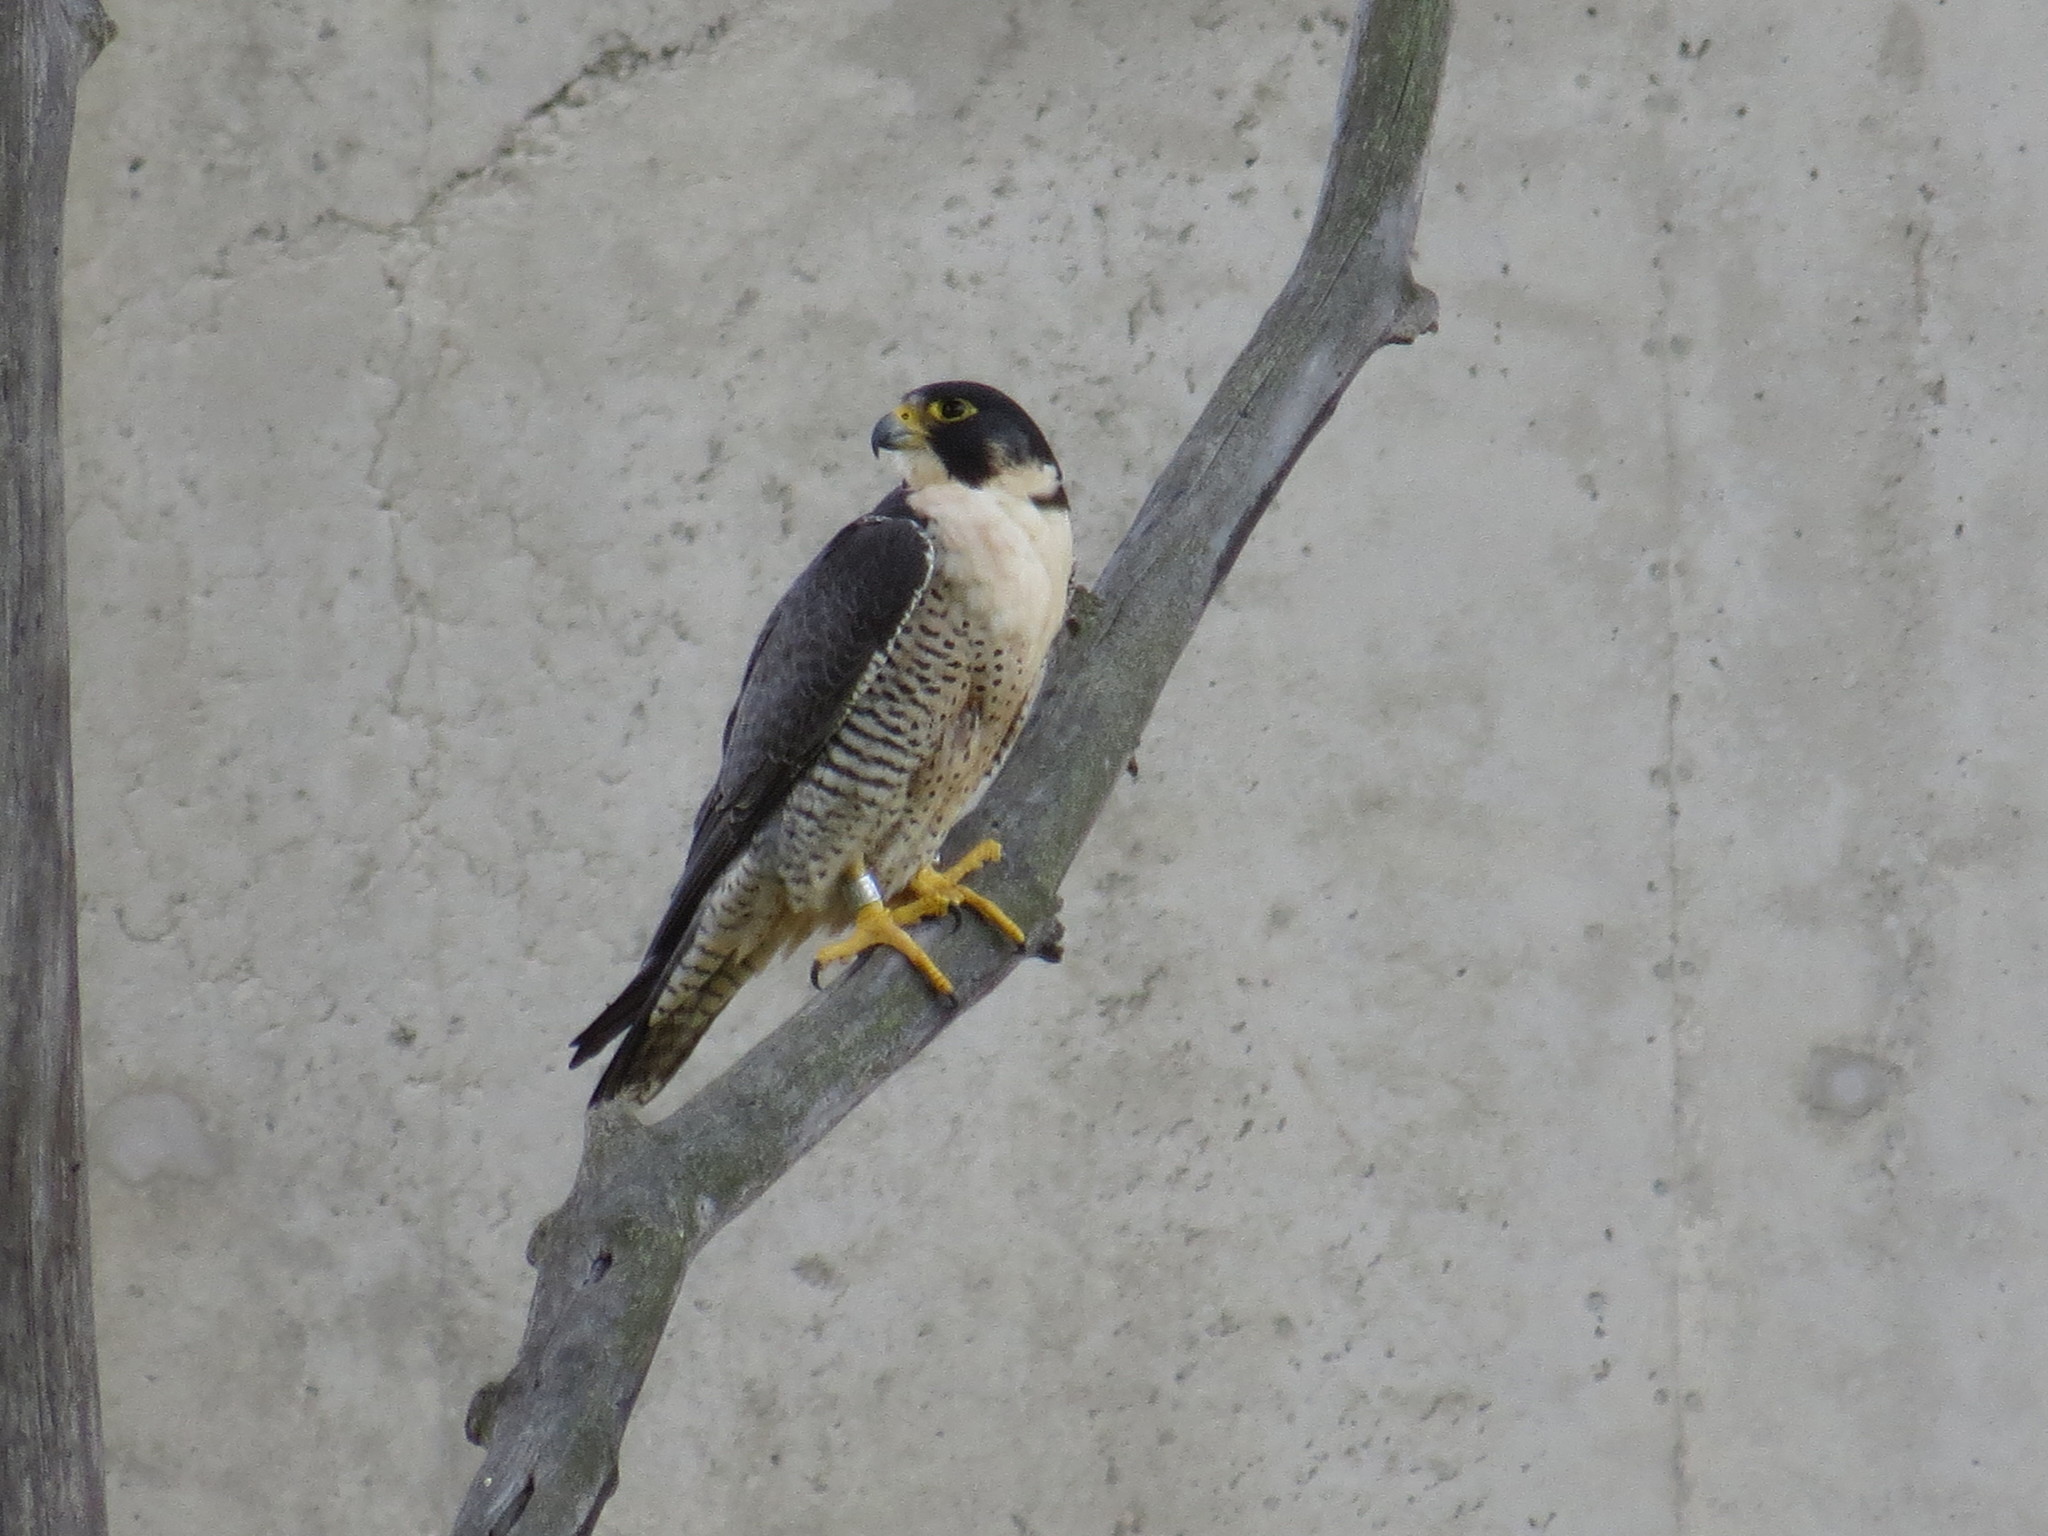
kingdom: Animalia
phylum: Chordata
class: Aves
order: Falconiformes
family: Falconidae
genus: Falco
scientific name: Falco peregrinus
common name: Peregrine falcon
